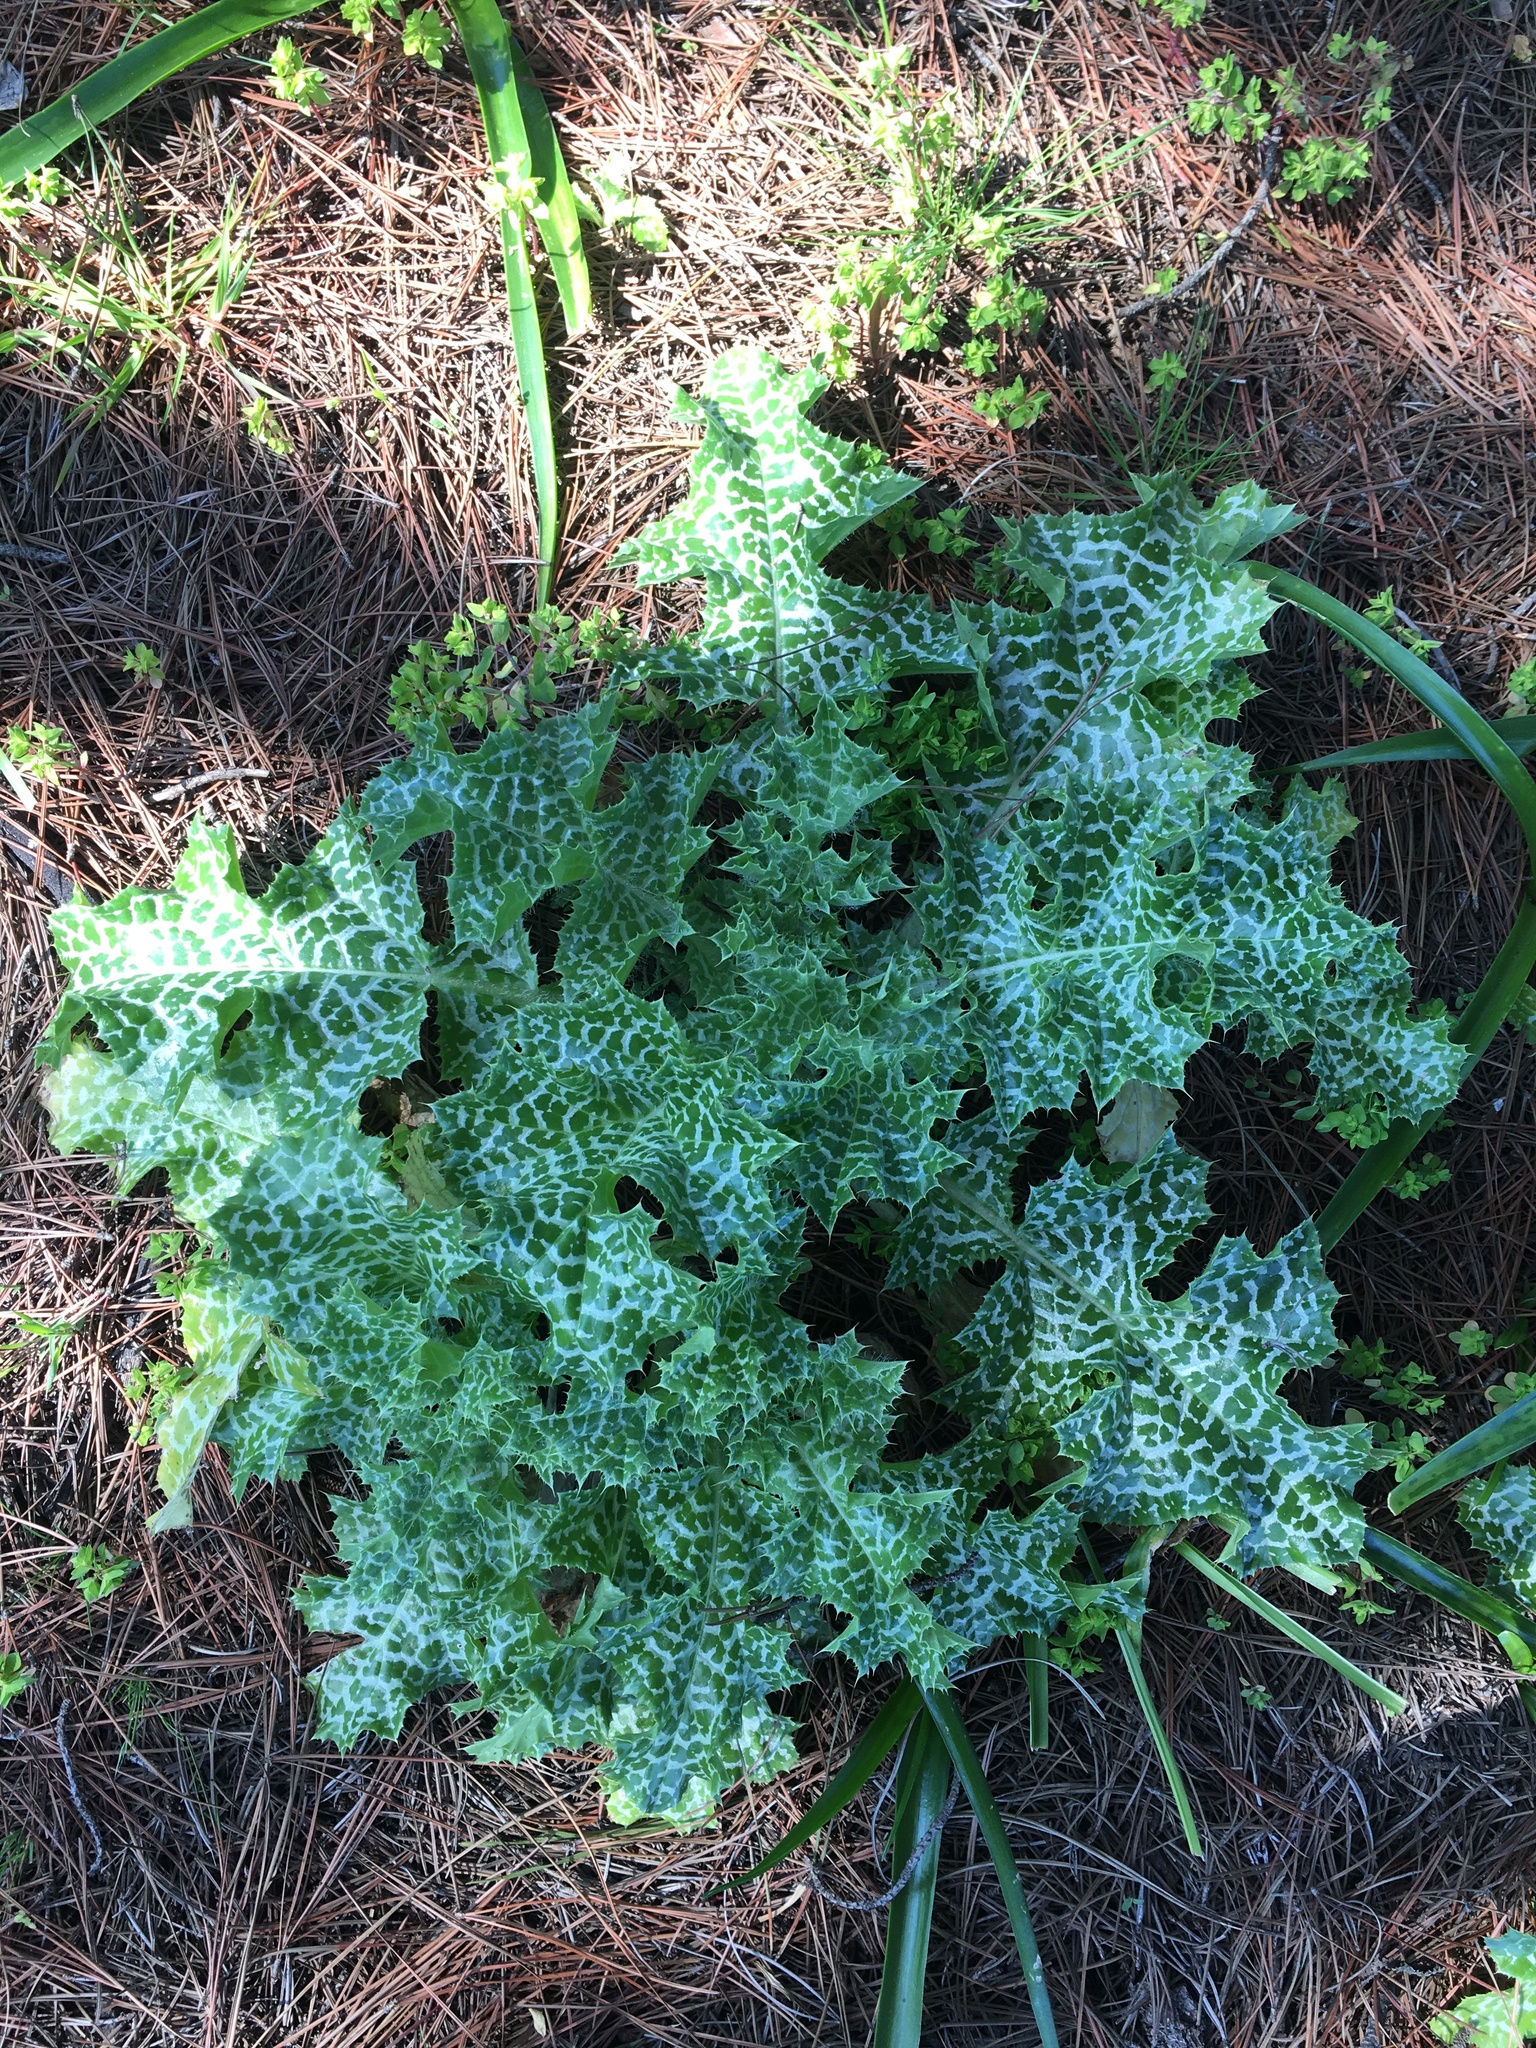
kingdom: Plantae
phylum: Tracheophyta
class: Magnoliopsida
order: Asterales
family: Asteraceae
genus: Silybum
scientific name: Silybum marianum
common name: Milk thistle
